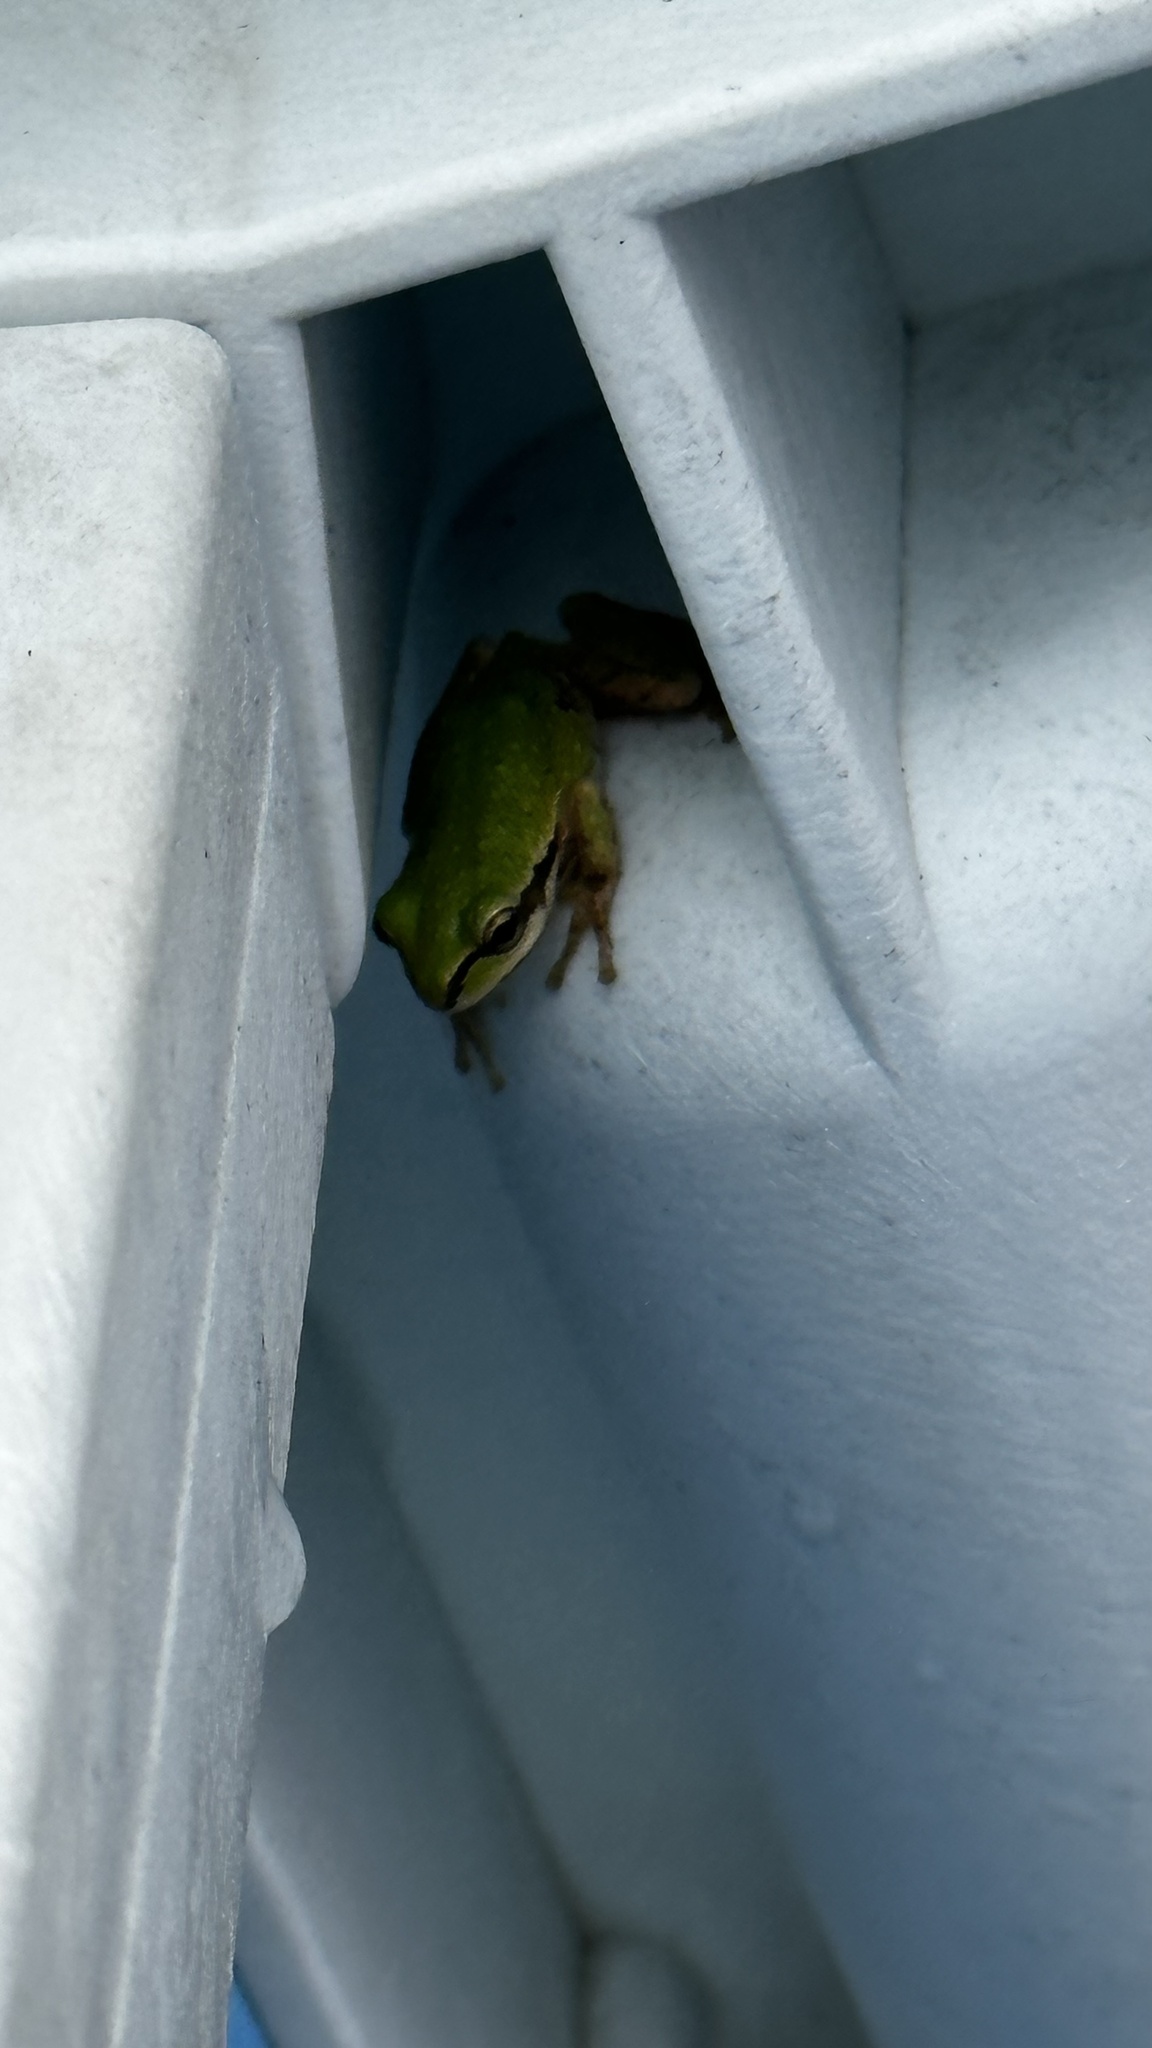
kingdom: Animalia
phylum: Chordata
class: Amphibia
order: Anura
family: Hylidae
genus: Pseudacris
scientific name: Pseudacris regilla
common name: Pacific chorus frog
